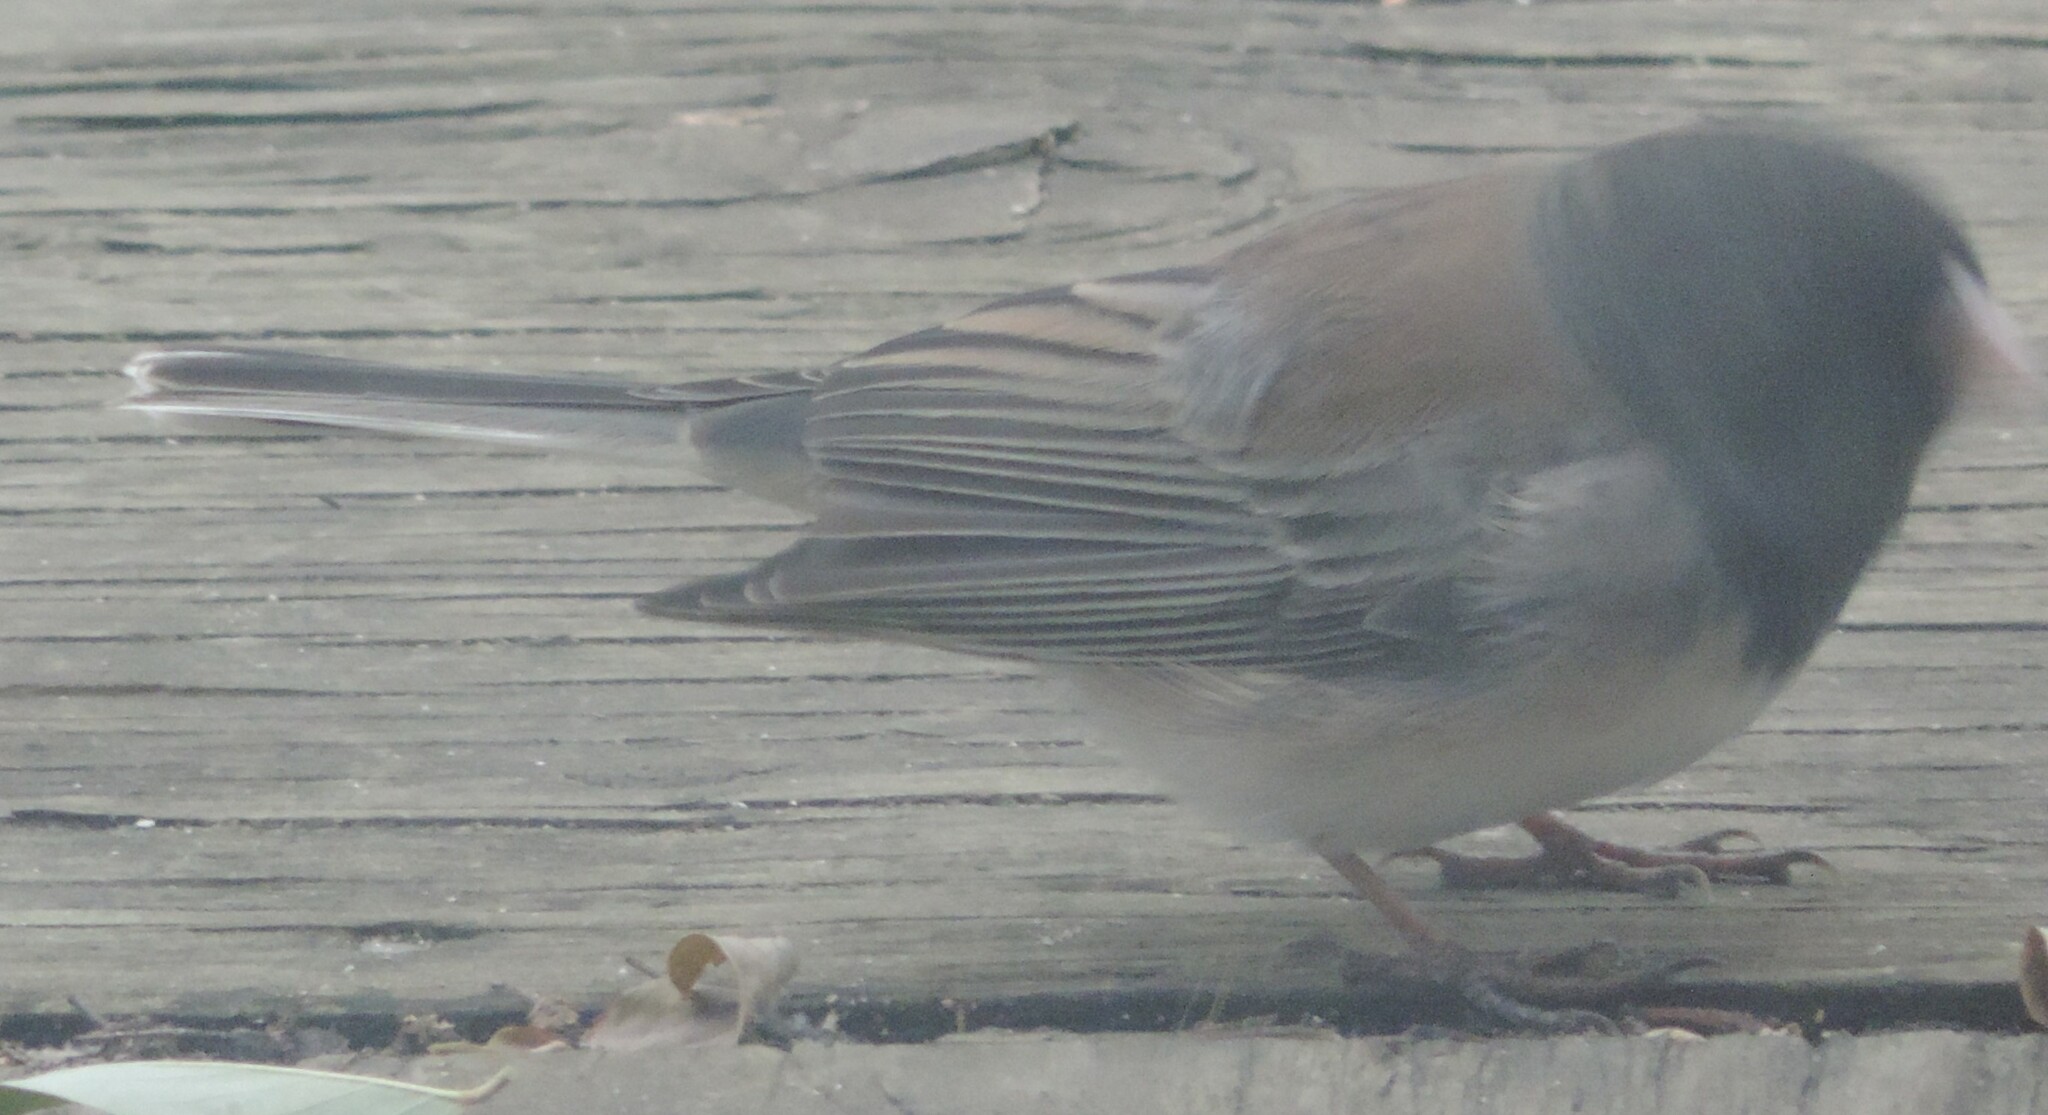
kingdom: Animalia
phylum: Chordata
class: Aves
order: Passeriformes
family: Passerellidae
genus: Junco
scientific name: Junco hyemalis
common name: Dark-eyed junco
